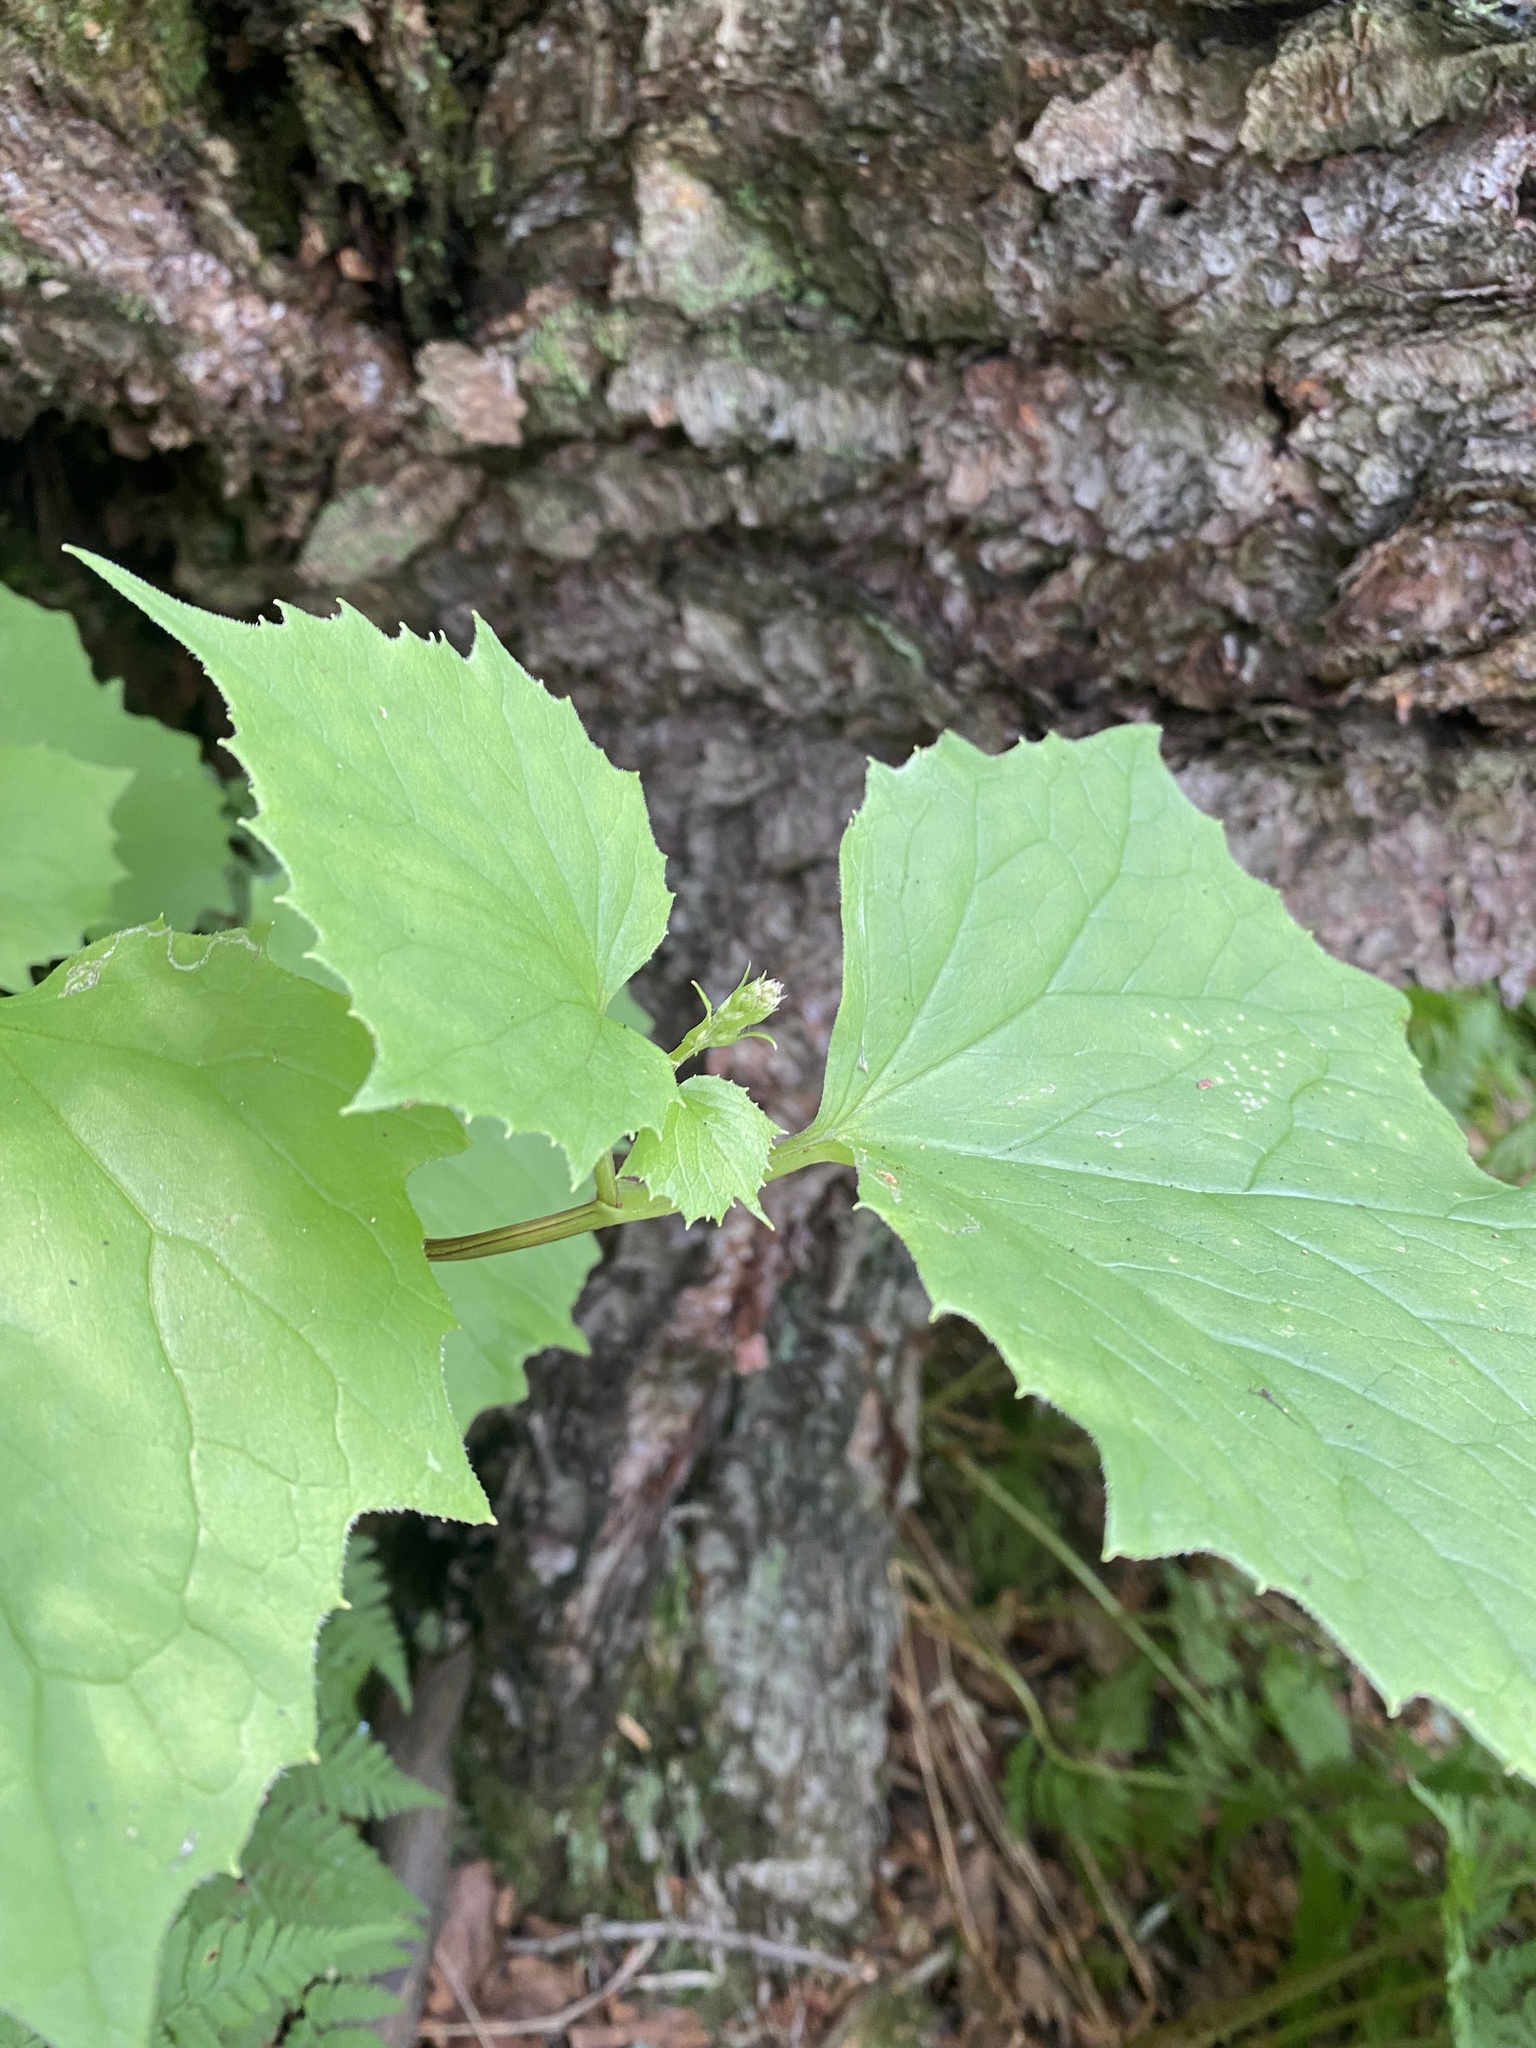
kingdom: Plantae
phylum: Tracheophyta
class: Magnoliopsida
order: Asterales
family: Asteraceae
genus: Parasenecio
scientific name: Parasenecio kamtschaticus
